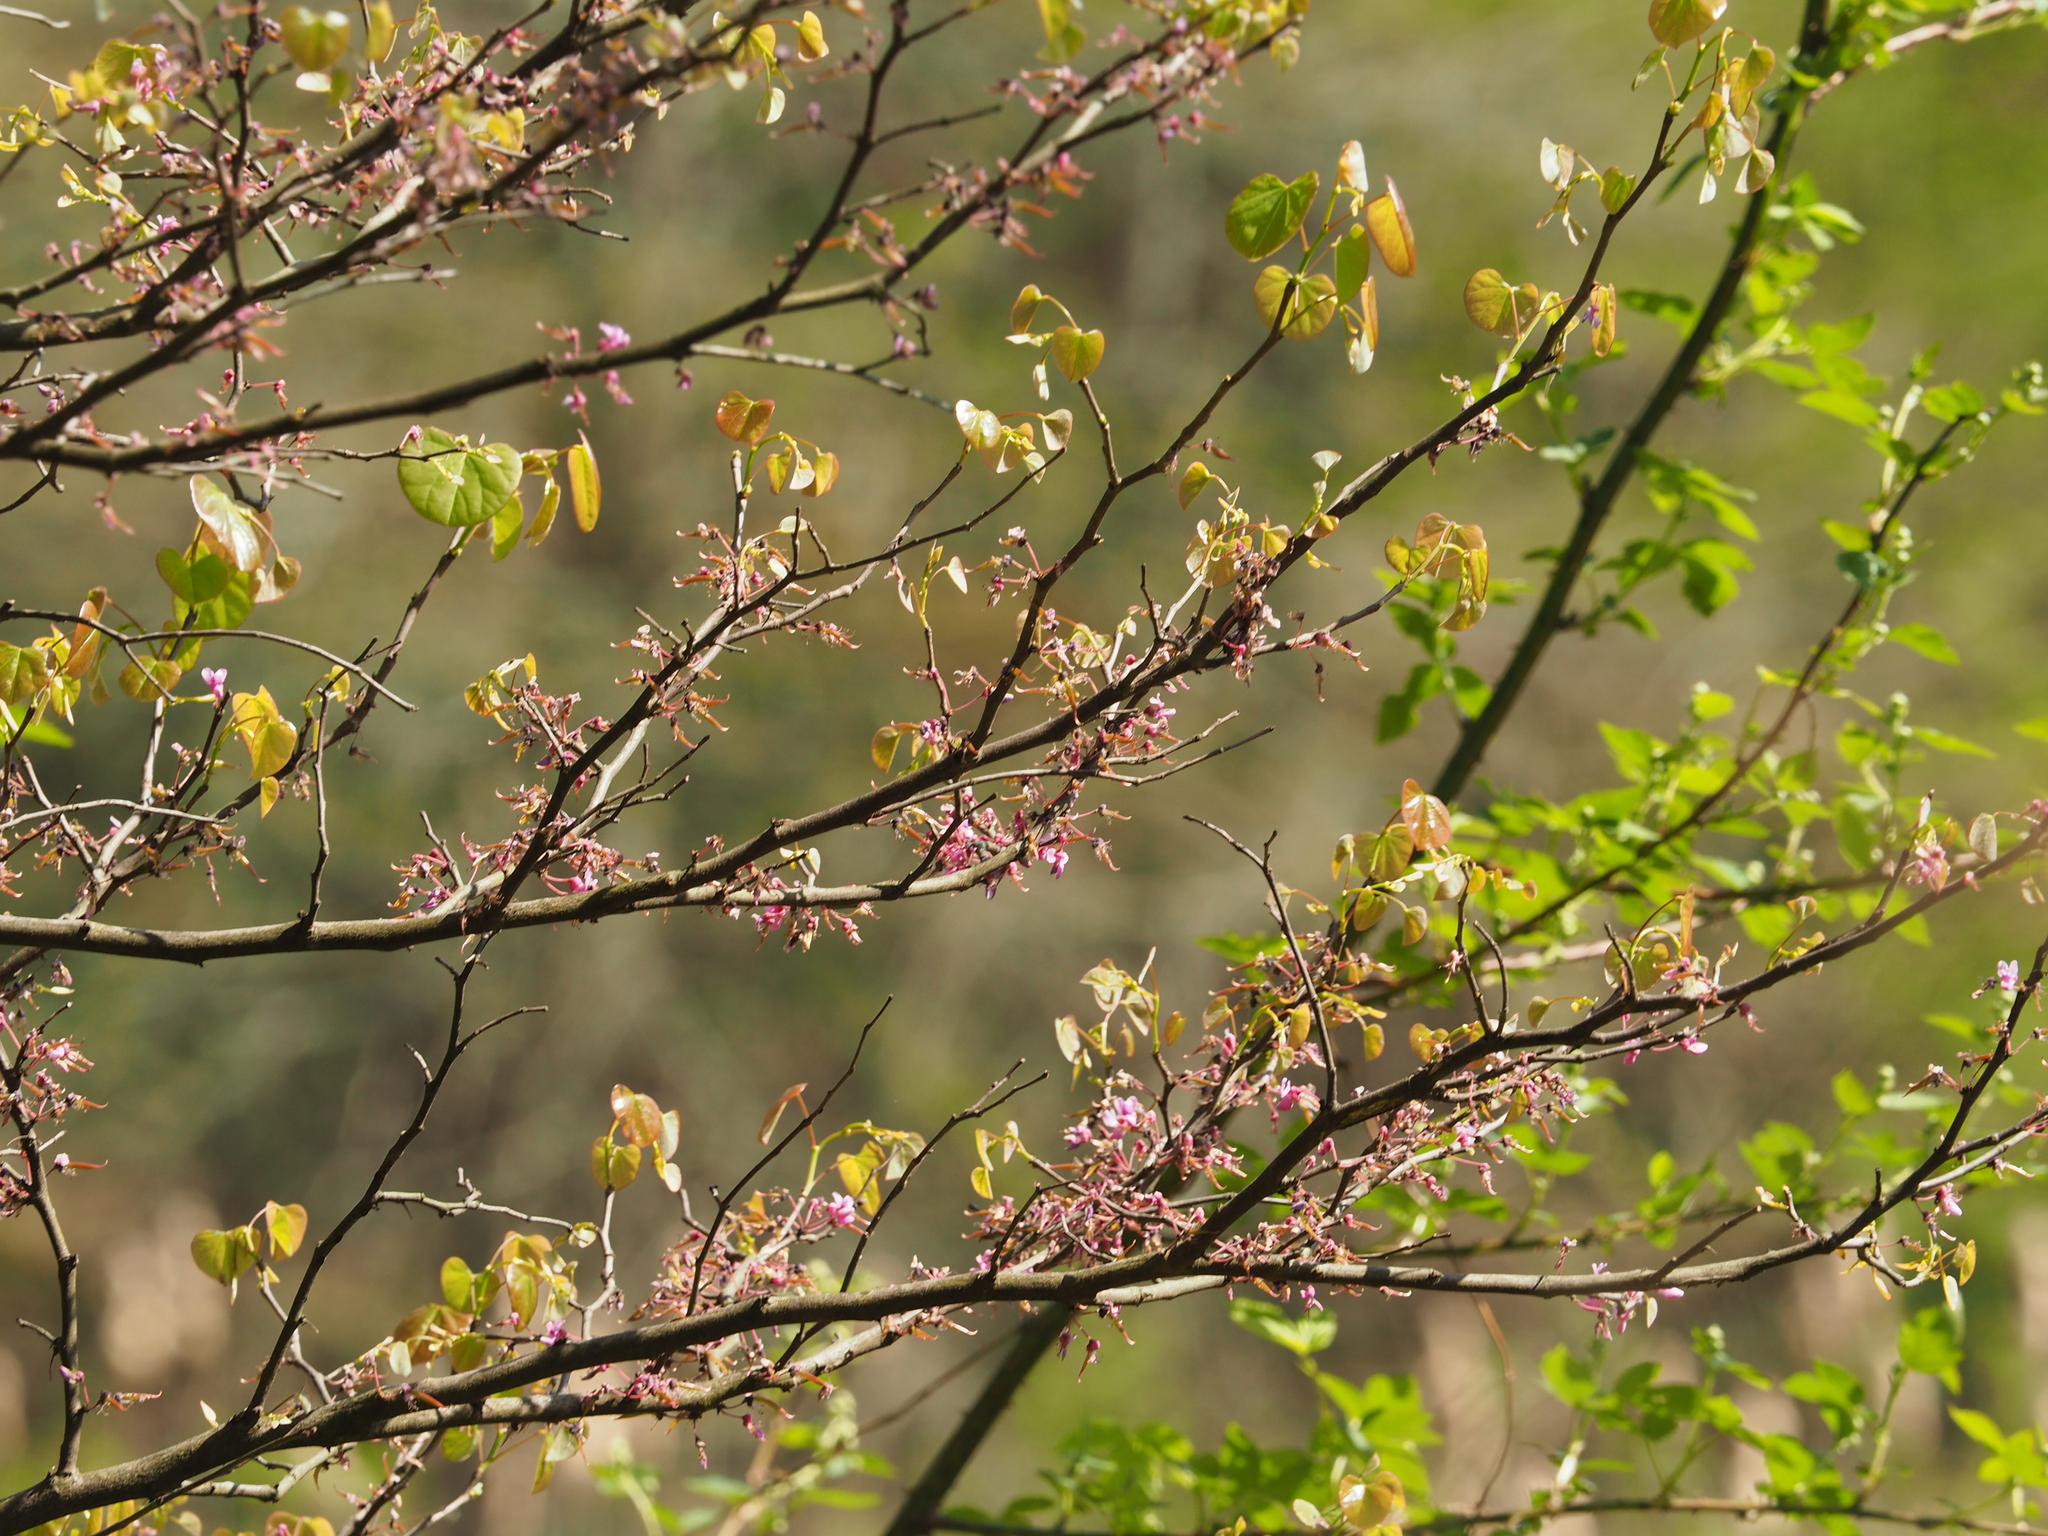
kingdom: Plantae
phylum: Tracheophyta
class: Magnoliopsida
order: Fabales
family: Fabaceae
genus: Cercis
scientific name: Cercis canadensis
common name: Eastern redbud
